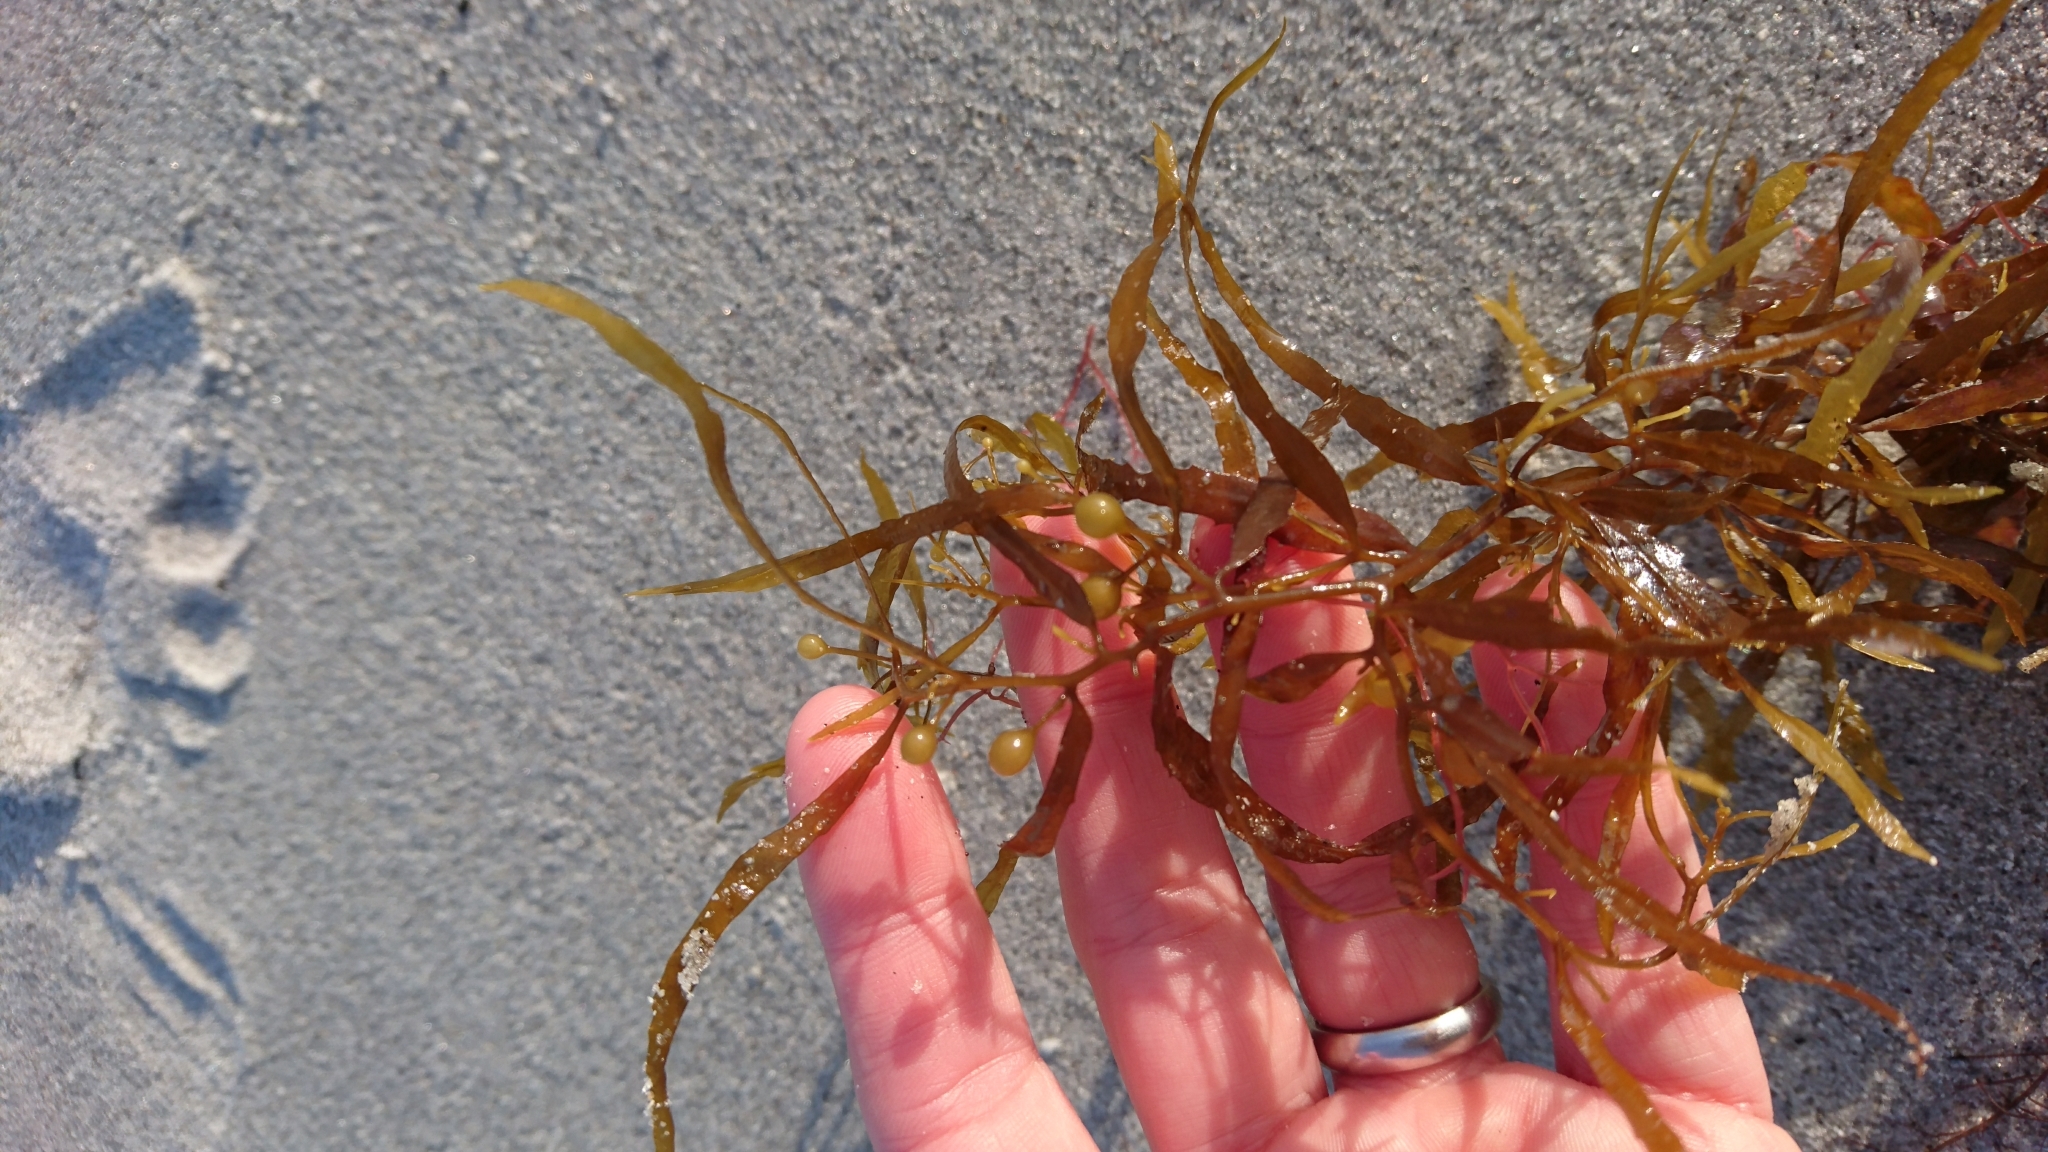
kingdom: Chromista
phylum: Ochrophyta
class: Phaeophyceae
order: Fucales
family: Sargassaceae
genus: Sargassum
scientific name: Sargassum fluitans
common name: Sargassum seaweed
